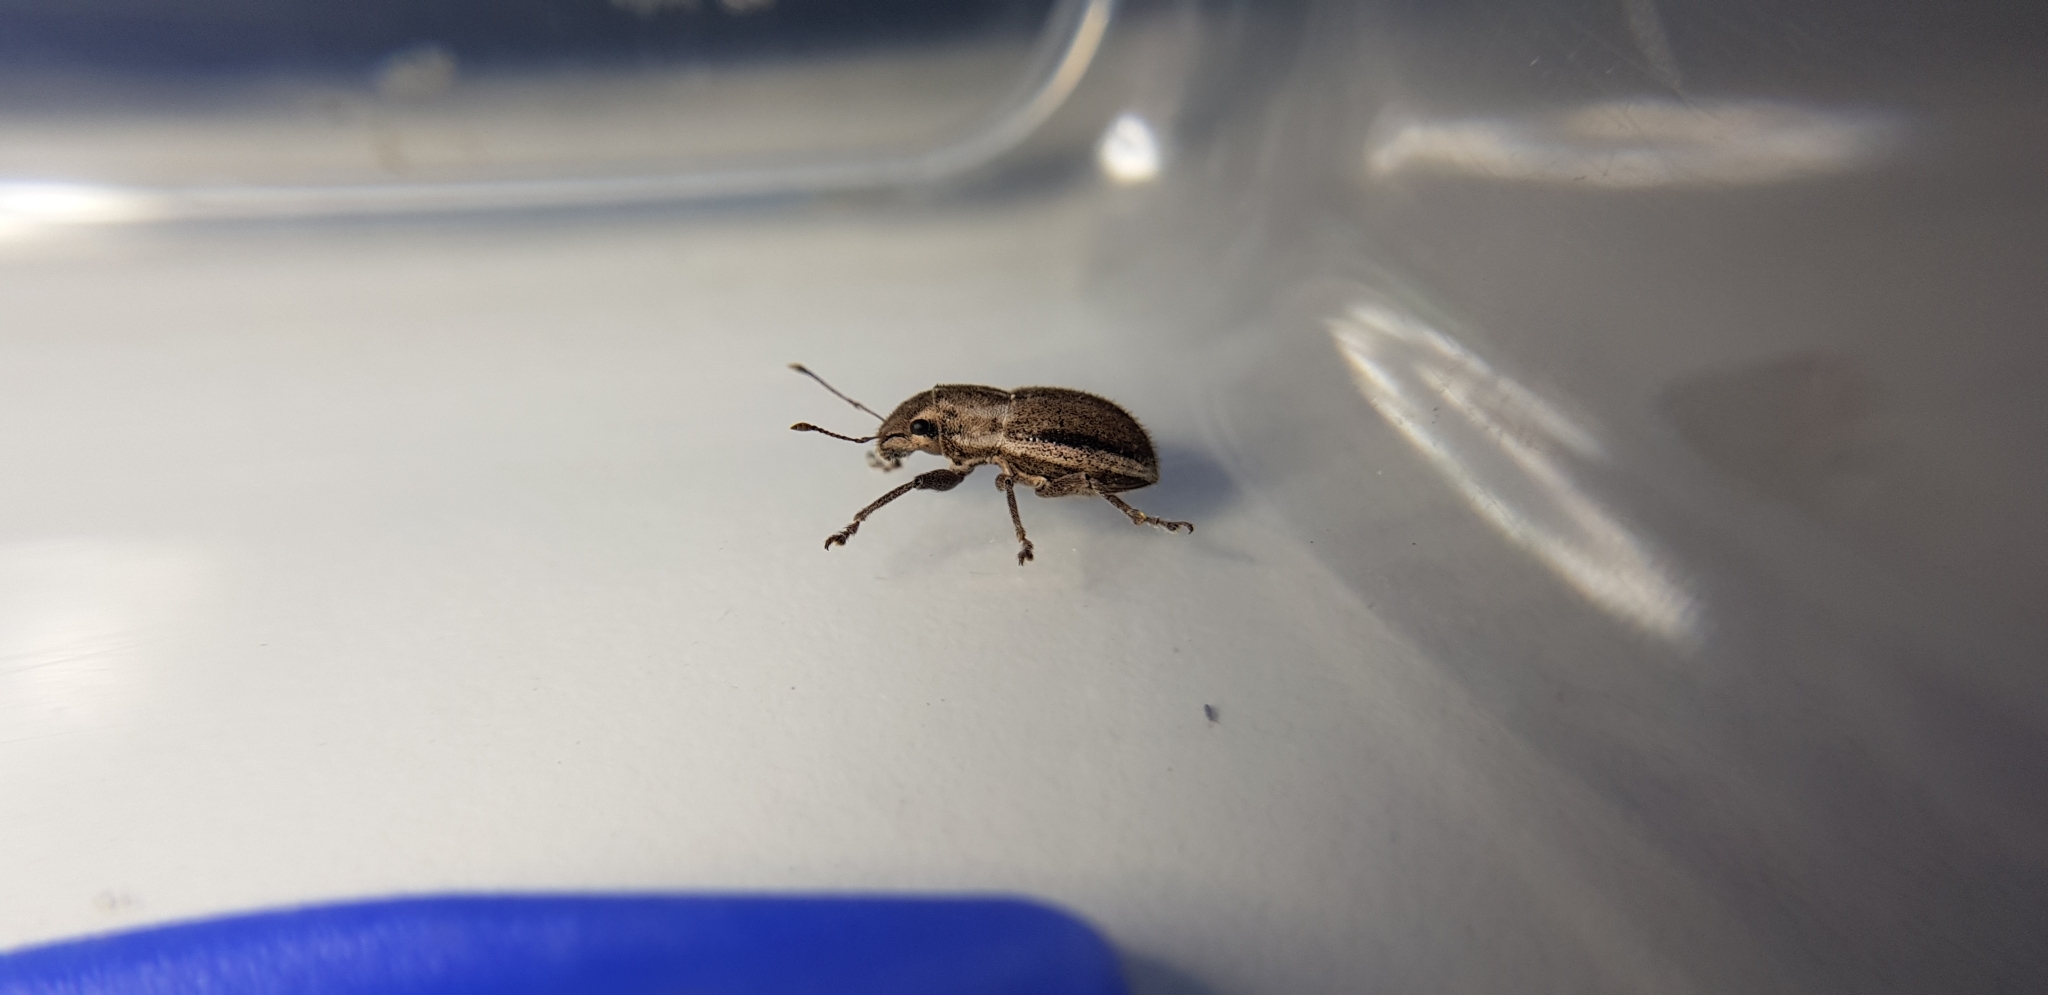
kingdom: Animalia
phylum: Arthropoda
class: Insecta
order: Coleoptera
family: Curculionidae
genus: Naupactus
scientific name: Naupactus peregrinus
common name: Whitefringed beetle
